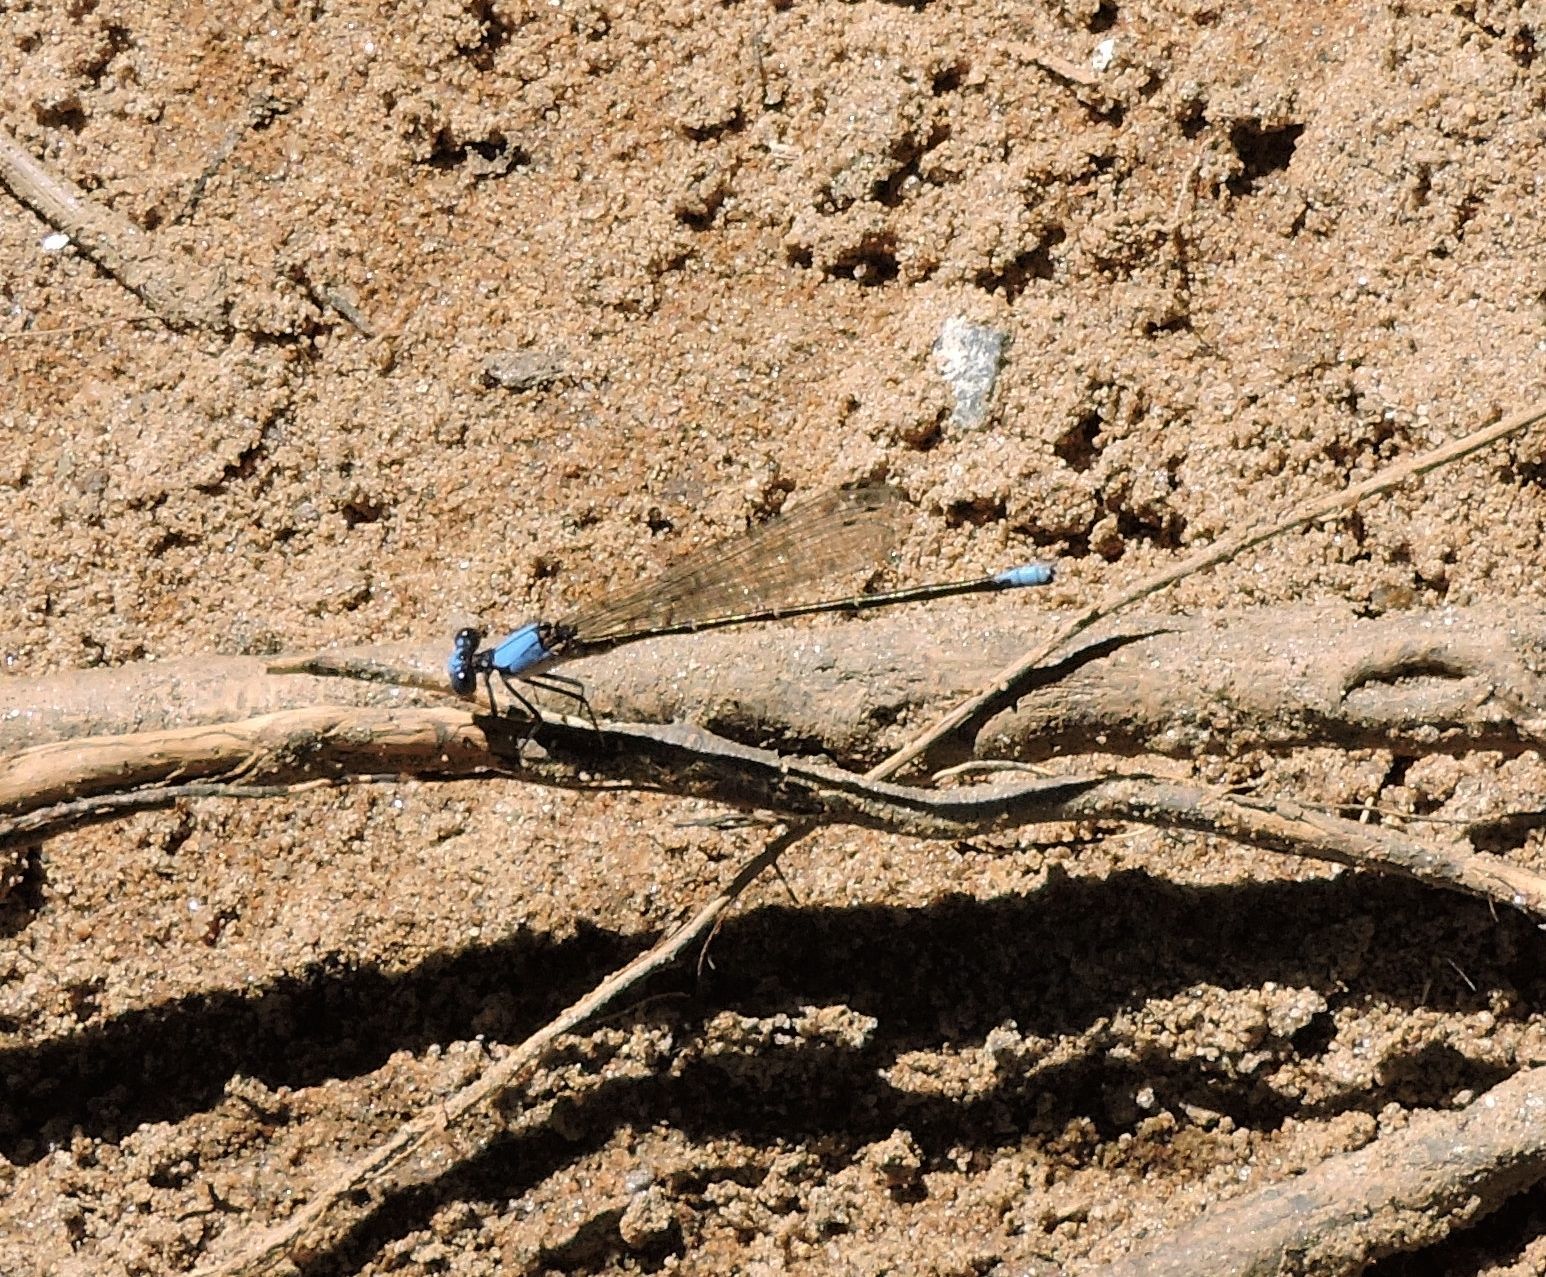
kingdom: Animalia
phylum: Arthropoda
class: Insecta
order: Odonata
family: Coenagrionidae
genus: Argia
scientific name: Argia apicalis
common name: Blue-fronted dancer
